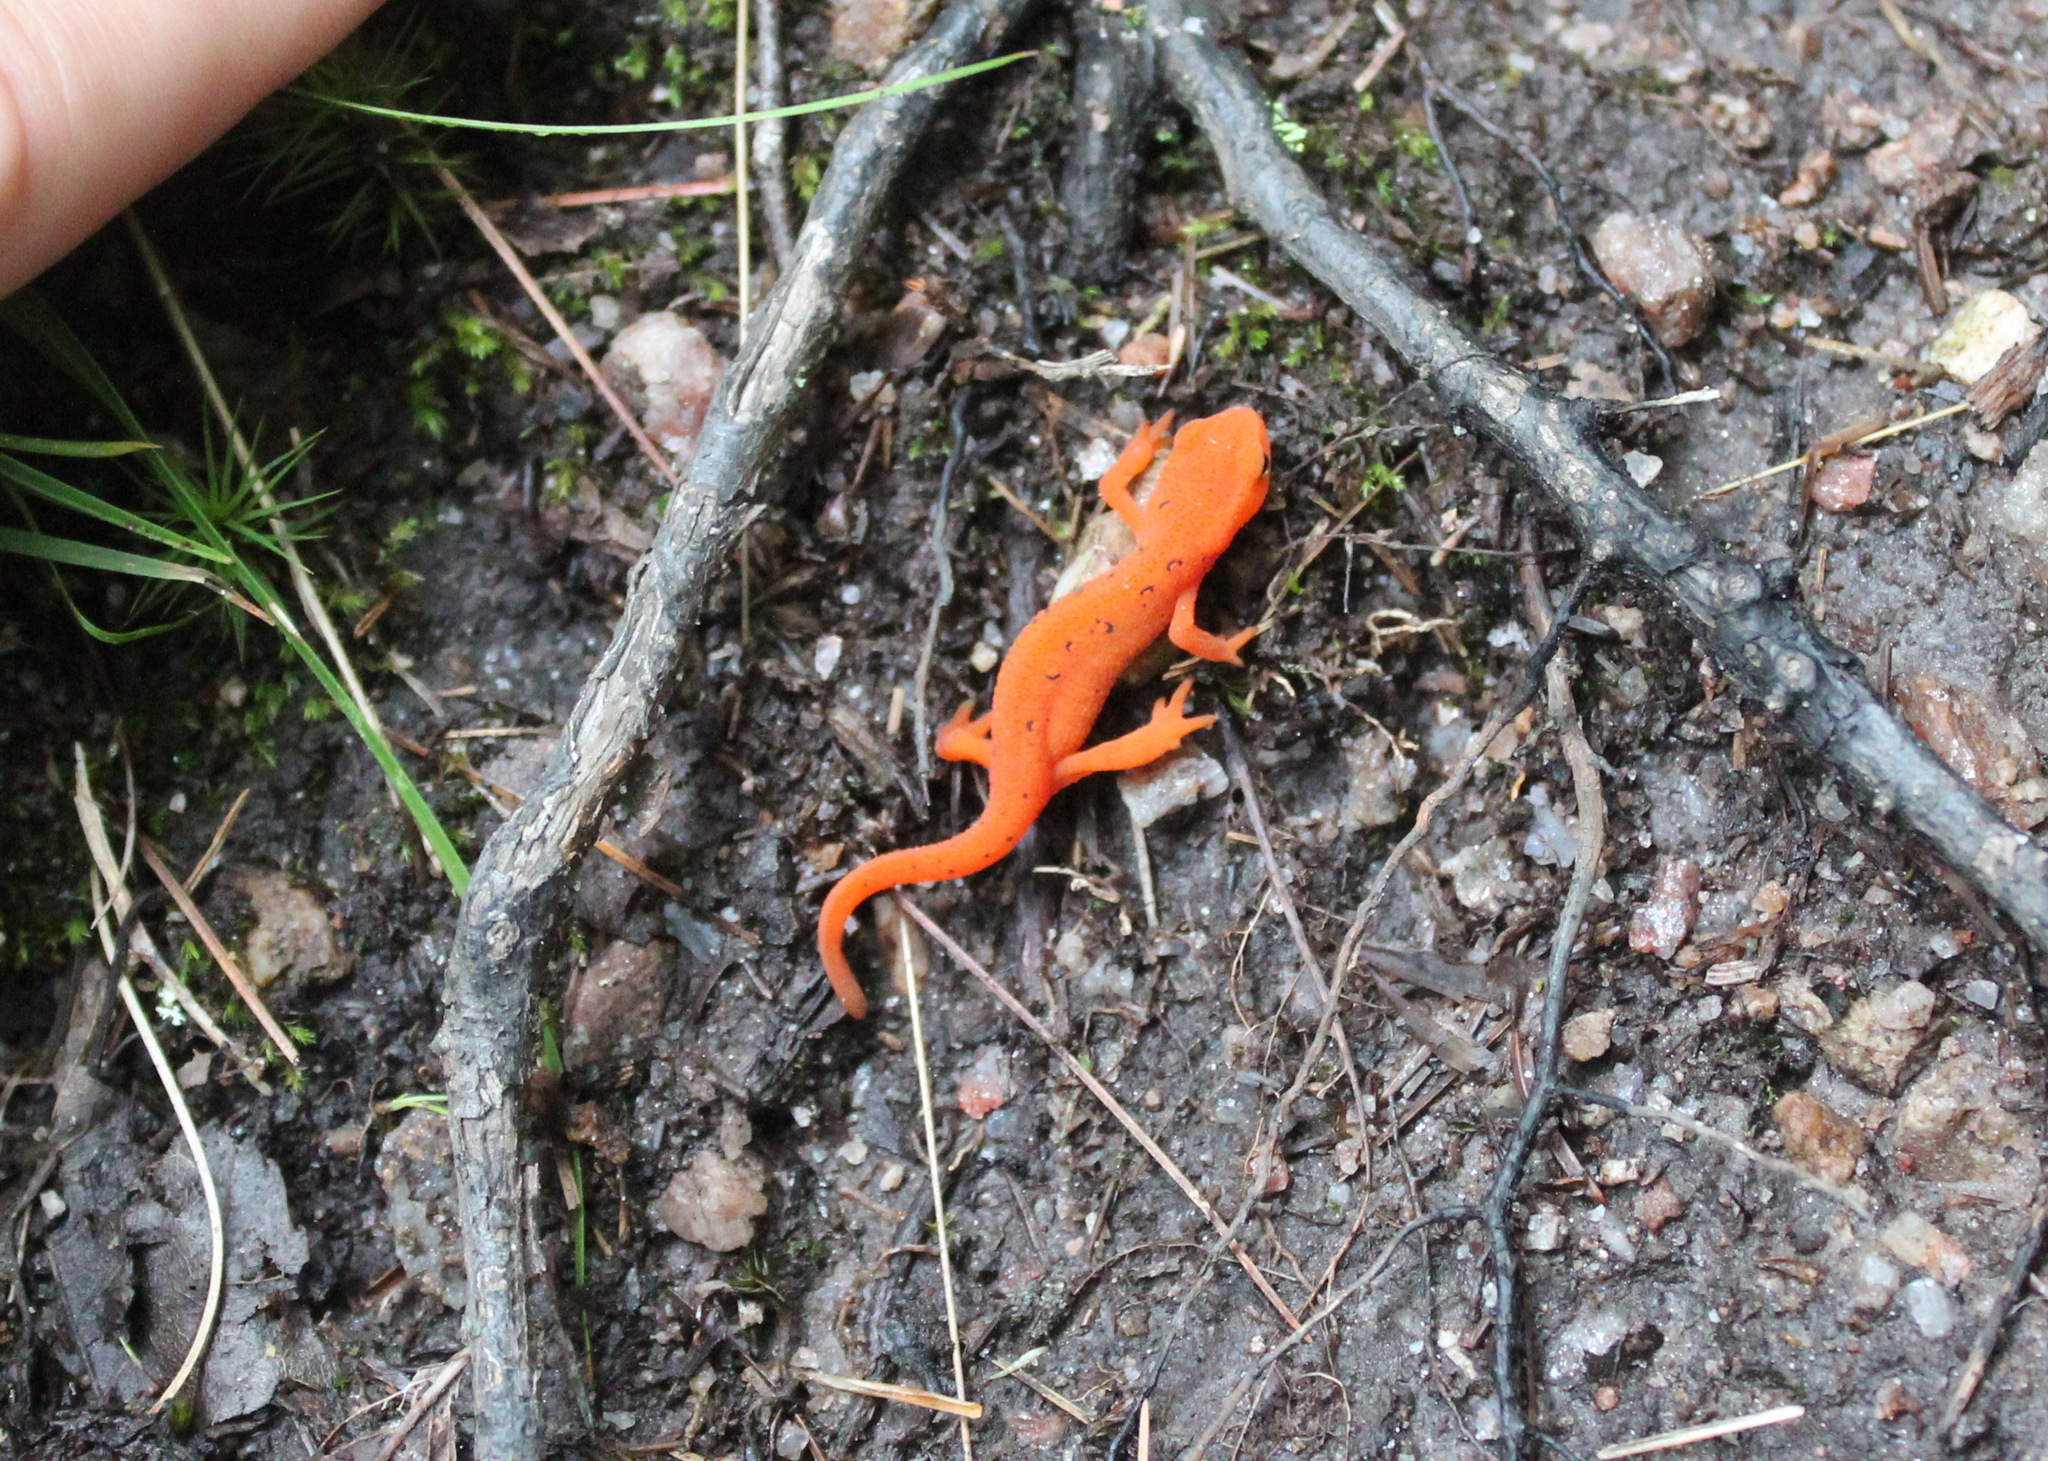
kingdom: Animalia
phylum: Chordata
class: Amphibia
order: Caudata
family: Salamandridae
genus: Notophthalmus
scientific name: Notophthalmus viridescens
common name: Eastern newt
